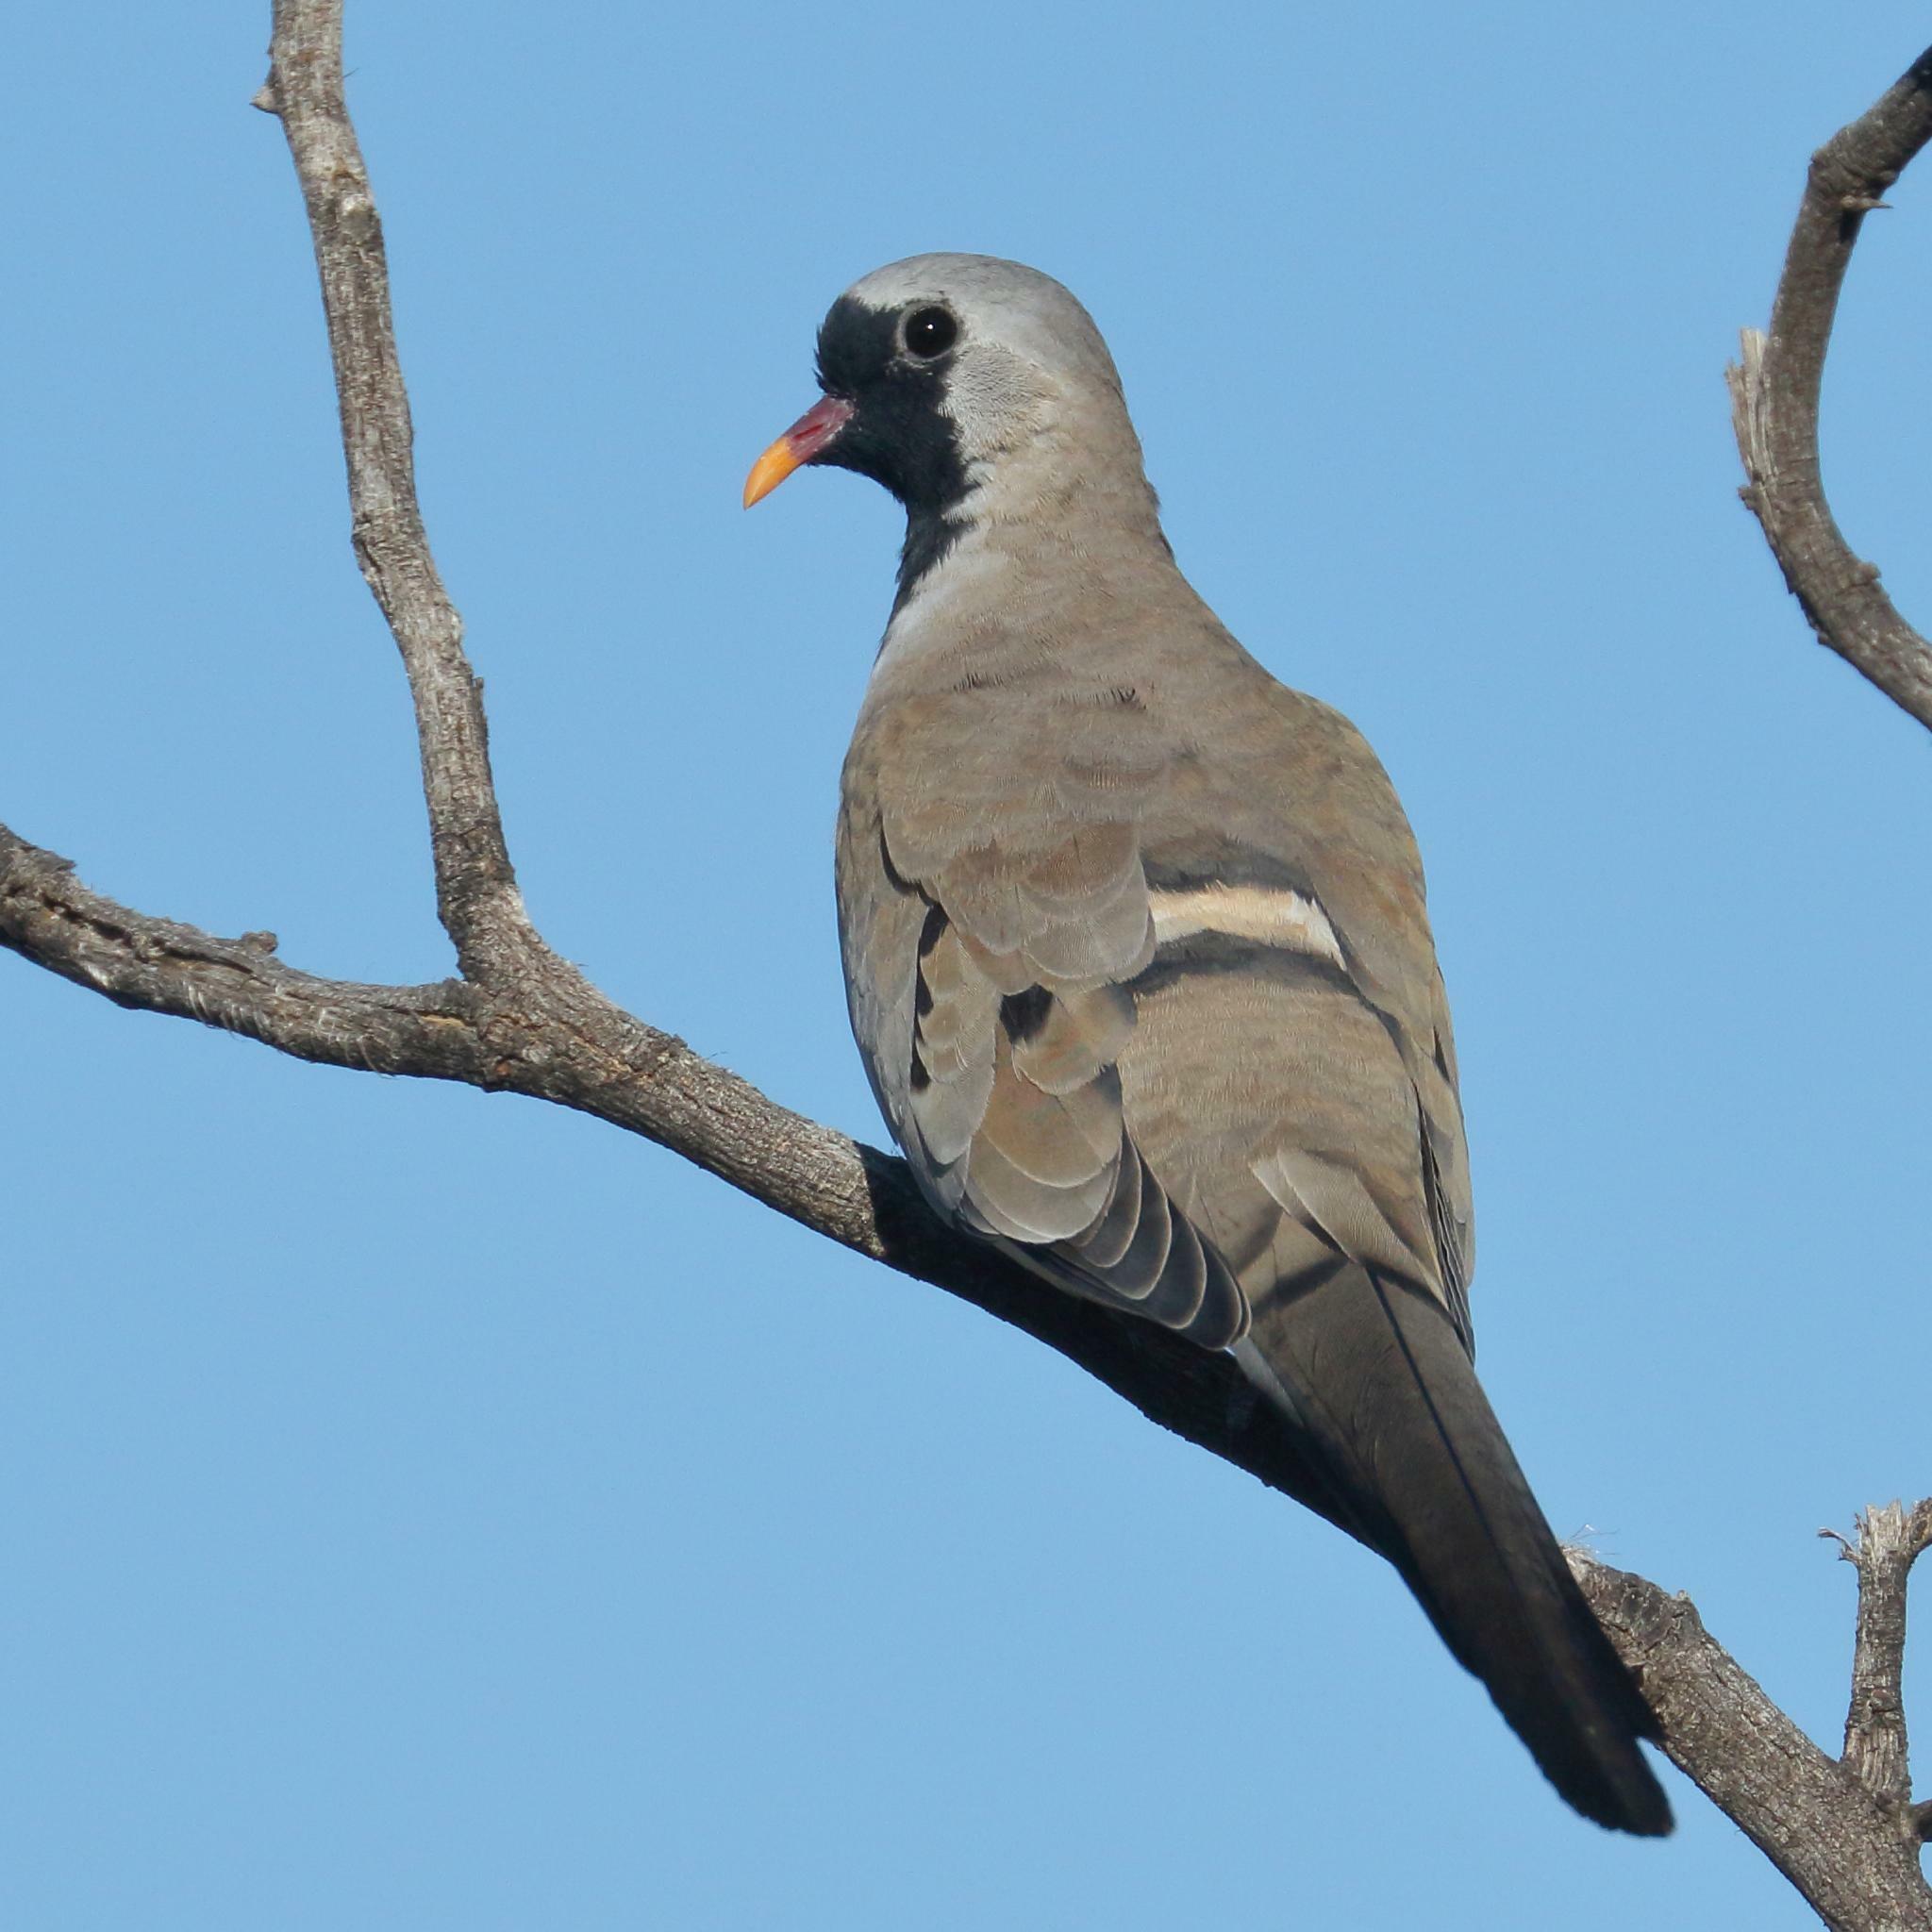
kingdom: Animalia
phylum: Chordata
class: Aves
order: Columbiformes
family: Columbidae
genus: Oena
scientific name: Oena capensis
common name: Namaqua dove
